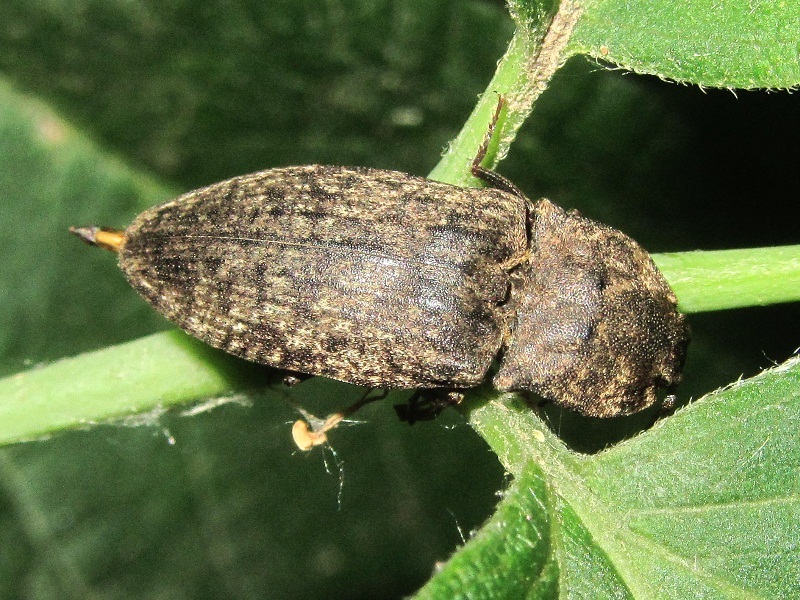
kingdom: Animalia
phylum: Arthropoda
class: Insecta
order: Coleoptera
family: Elateridae
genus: Agrypnus
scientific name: Agrypnus murinus
